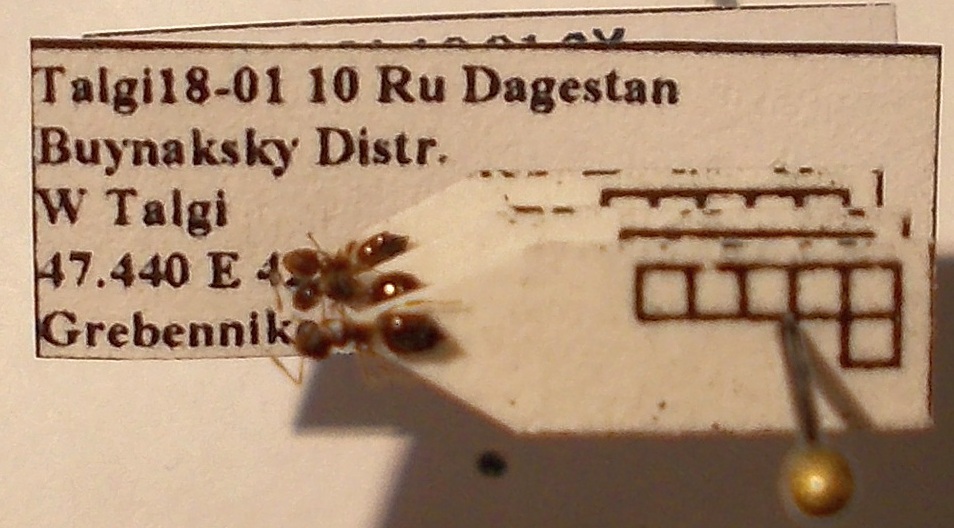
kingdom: Animalia
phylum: Arthropoda
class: Insecta
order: Hymenoptera
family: Formicidae
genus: Crematogaster
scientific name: Crematogaster sordidula
